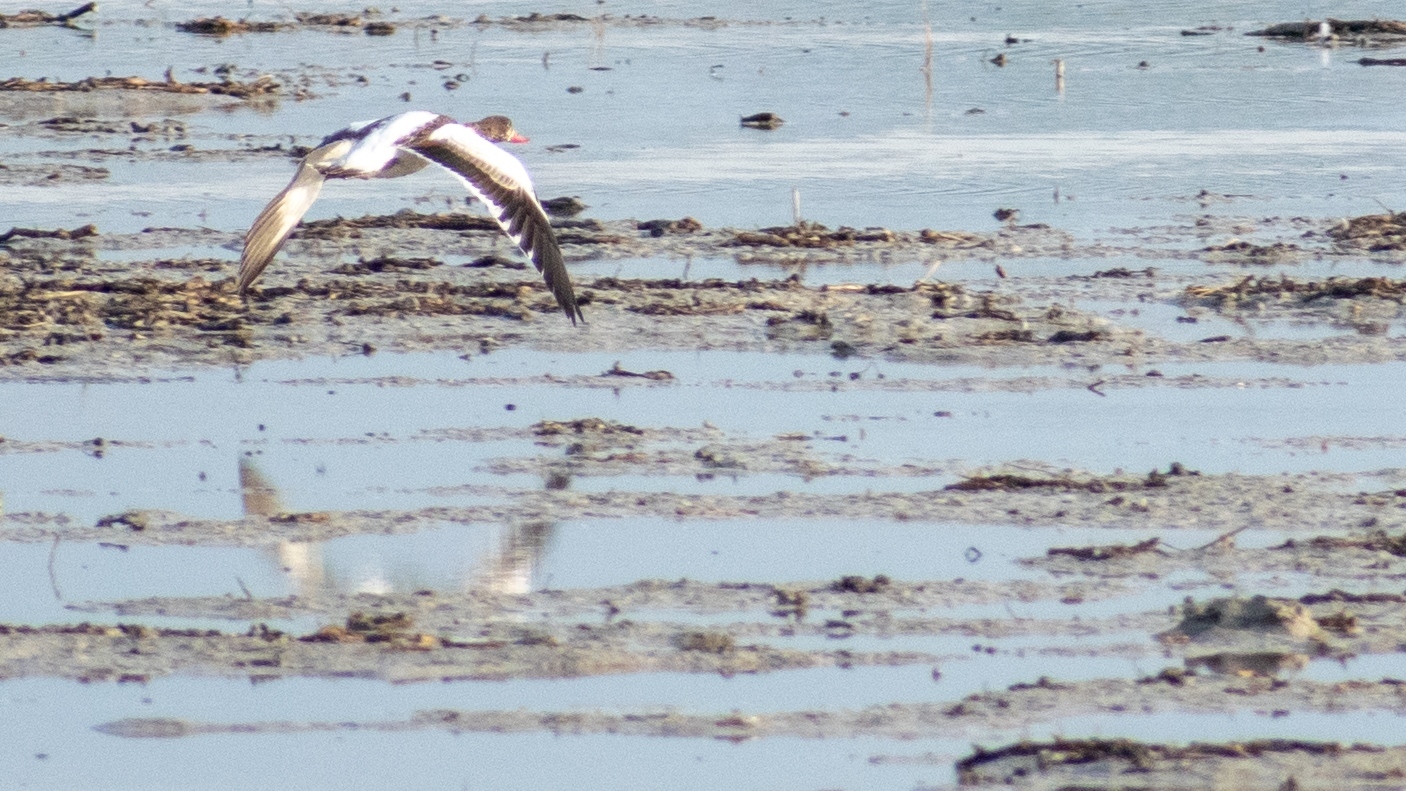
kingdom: Animalia
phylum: Chordata
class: Aves
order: Anseriformes
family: Anatidae
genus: Tadorna
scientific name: Tadorna tadorna
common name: Common shelduck
